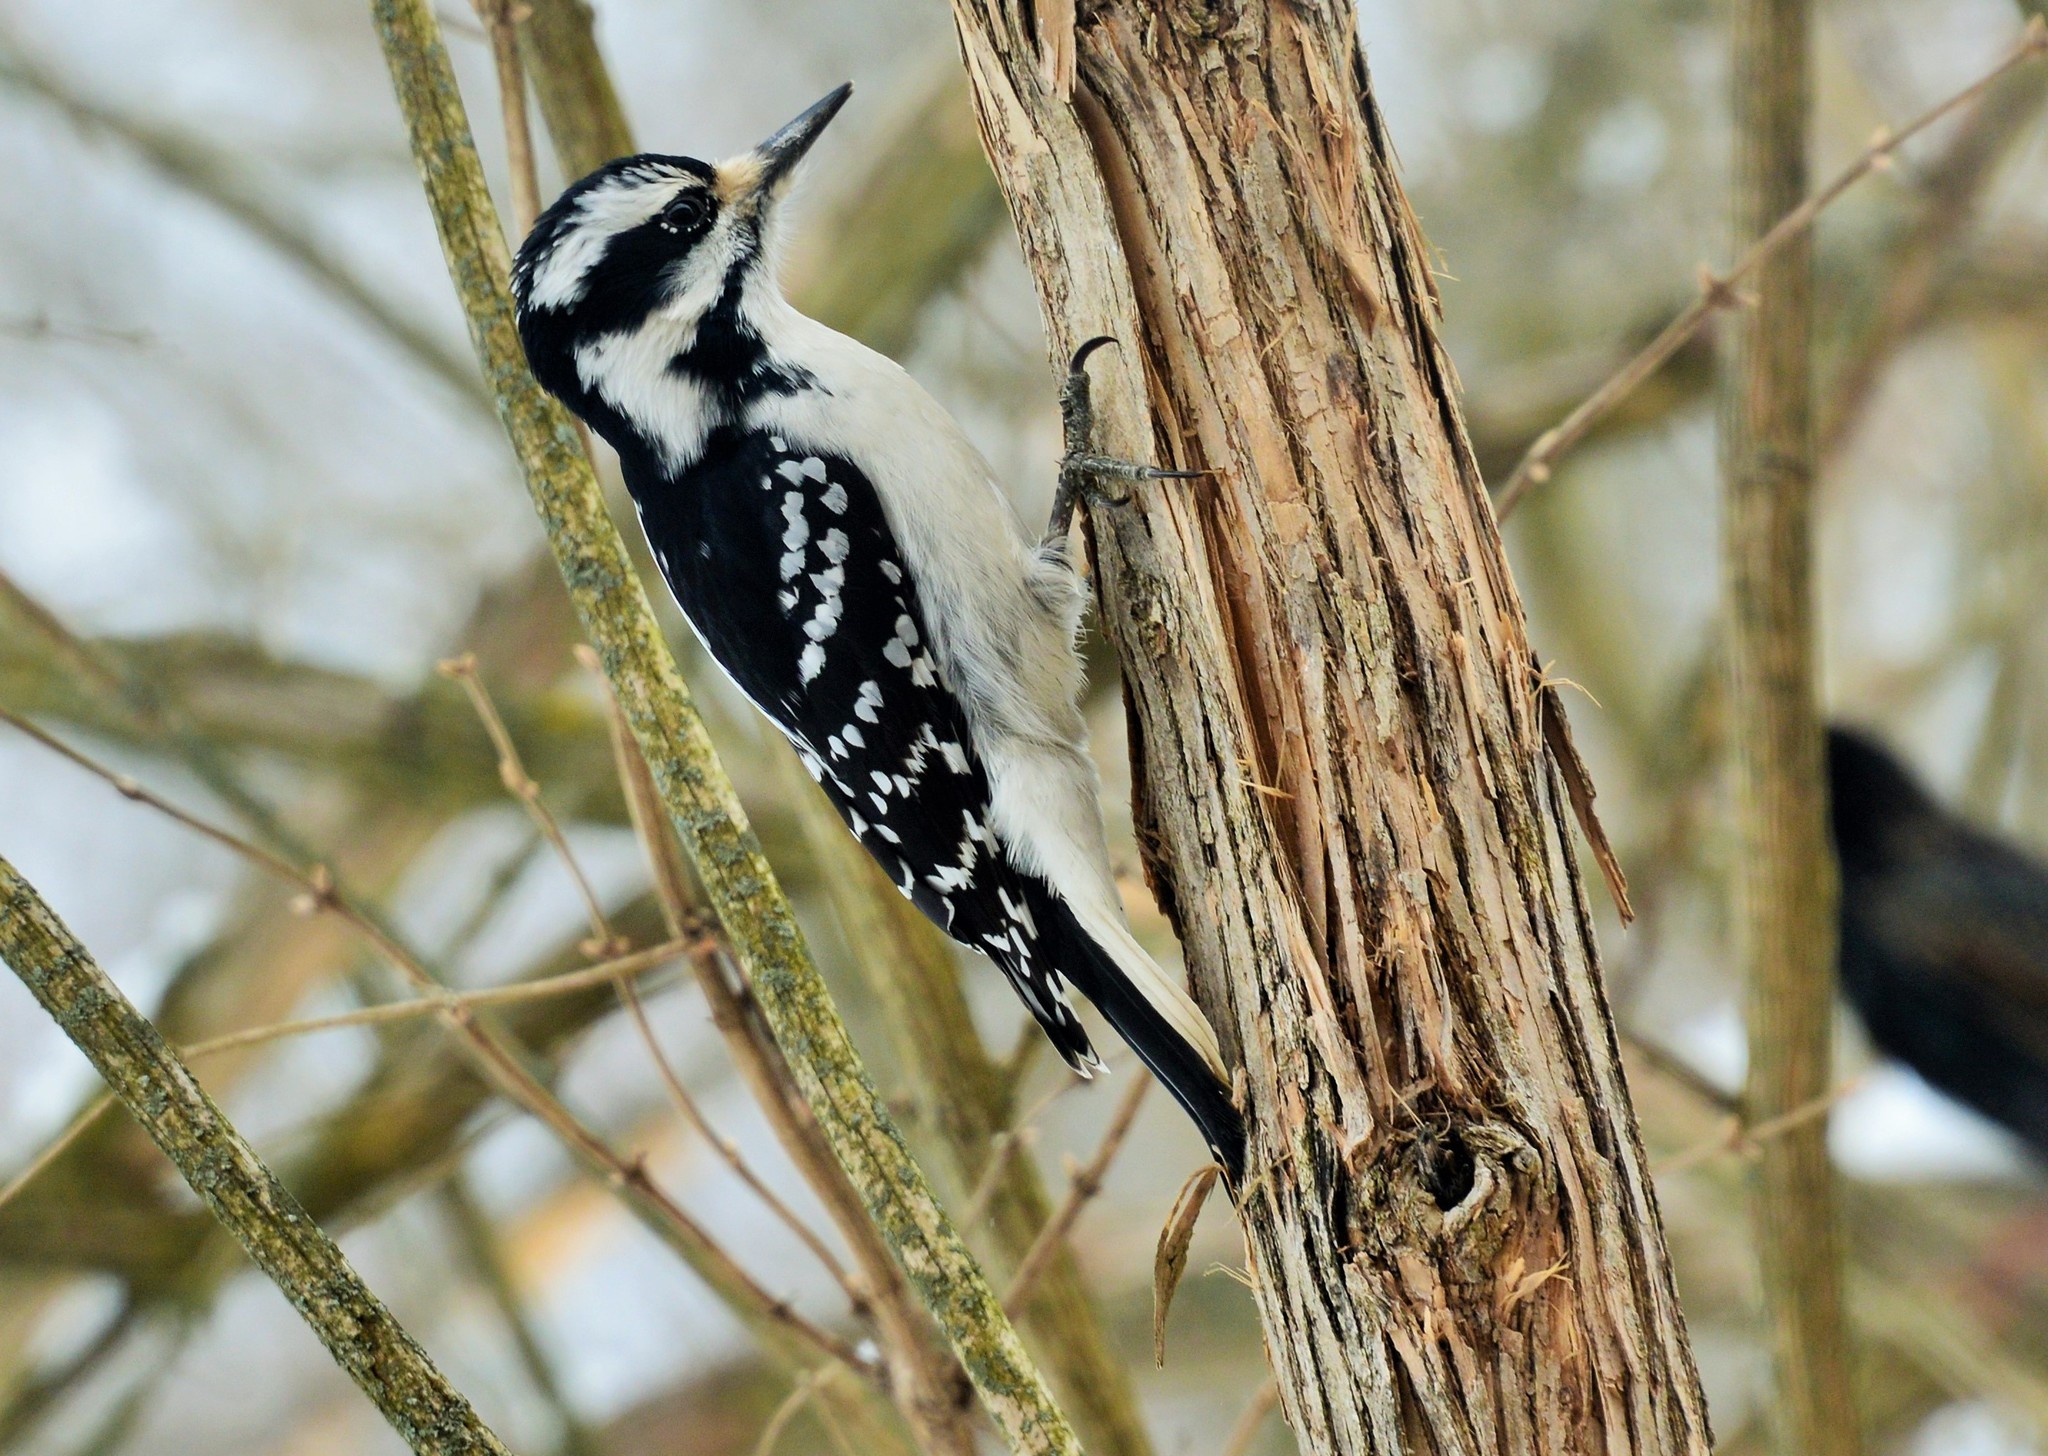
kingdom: Animalia
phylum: Chordata
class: Aves
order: Piciformes
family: Picidae
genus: Leuconotopicus
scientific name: Leuconotopicus villosus
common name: Hairy woodpecker
